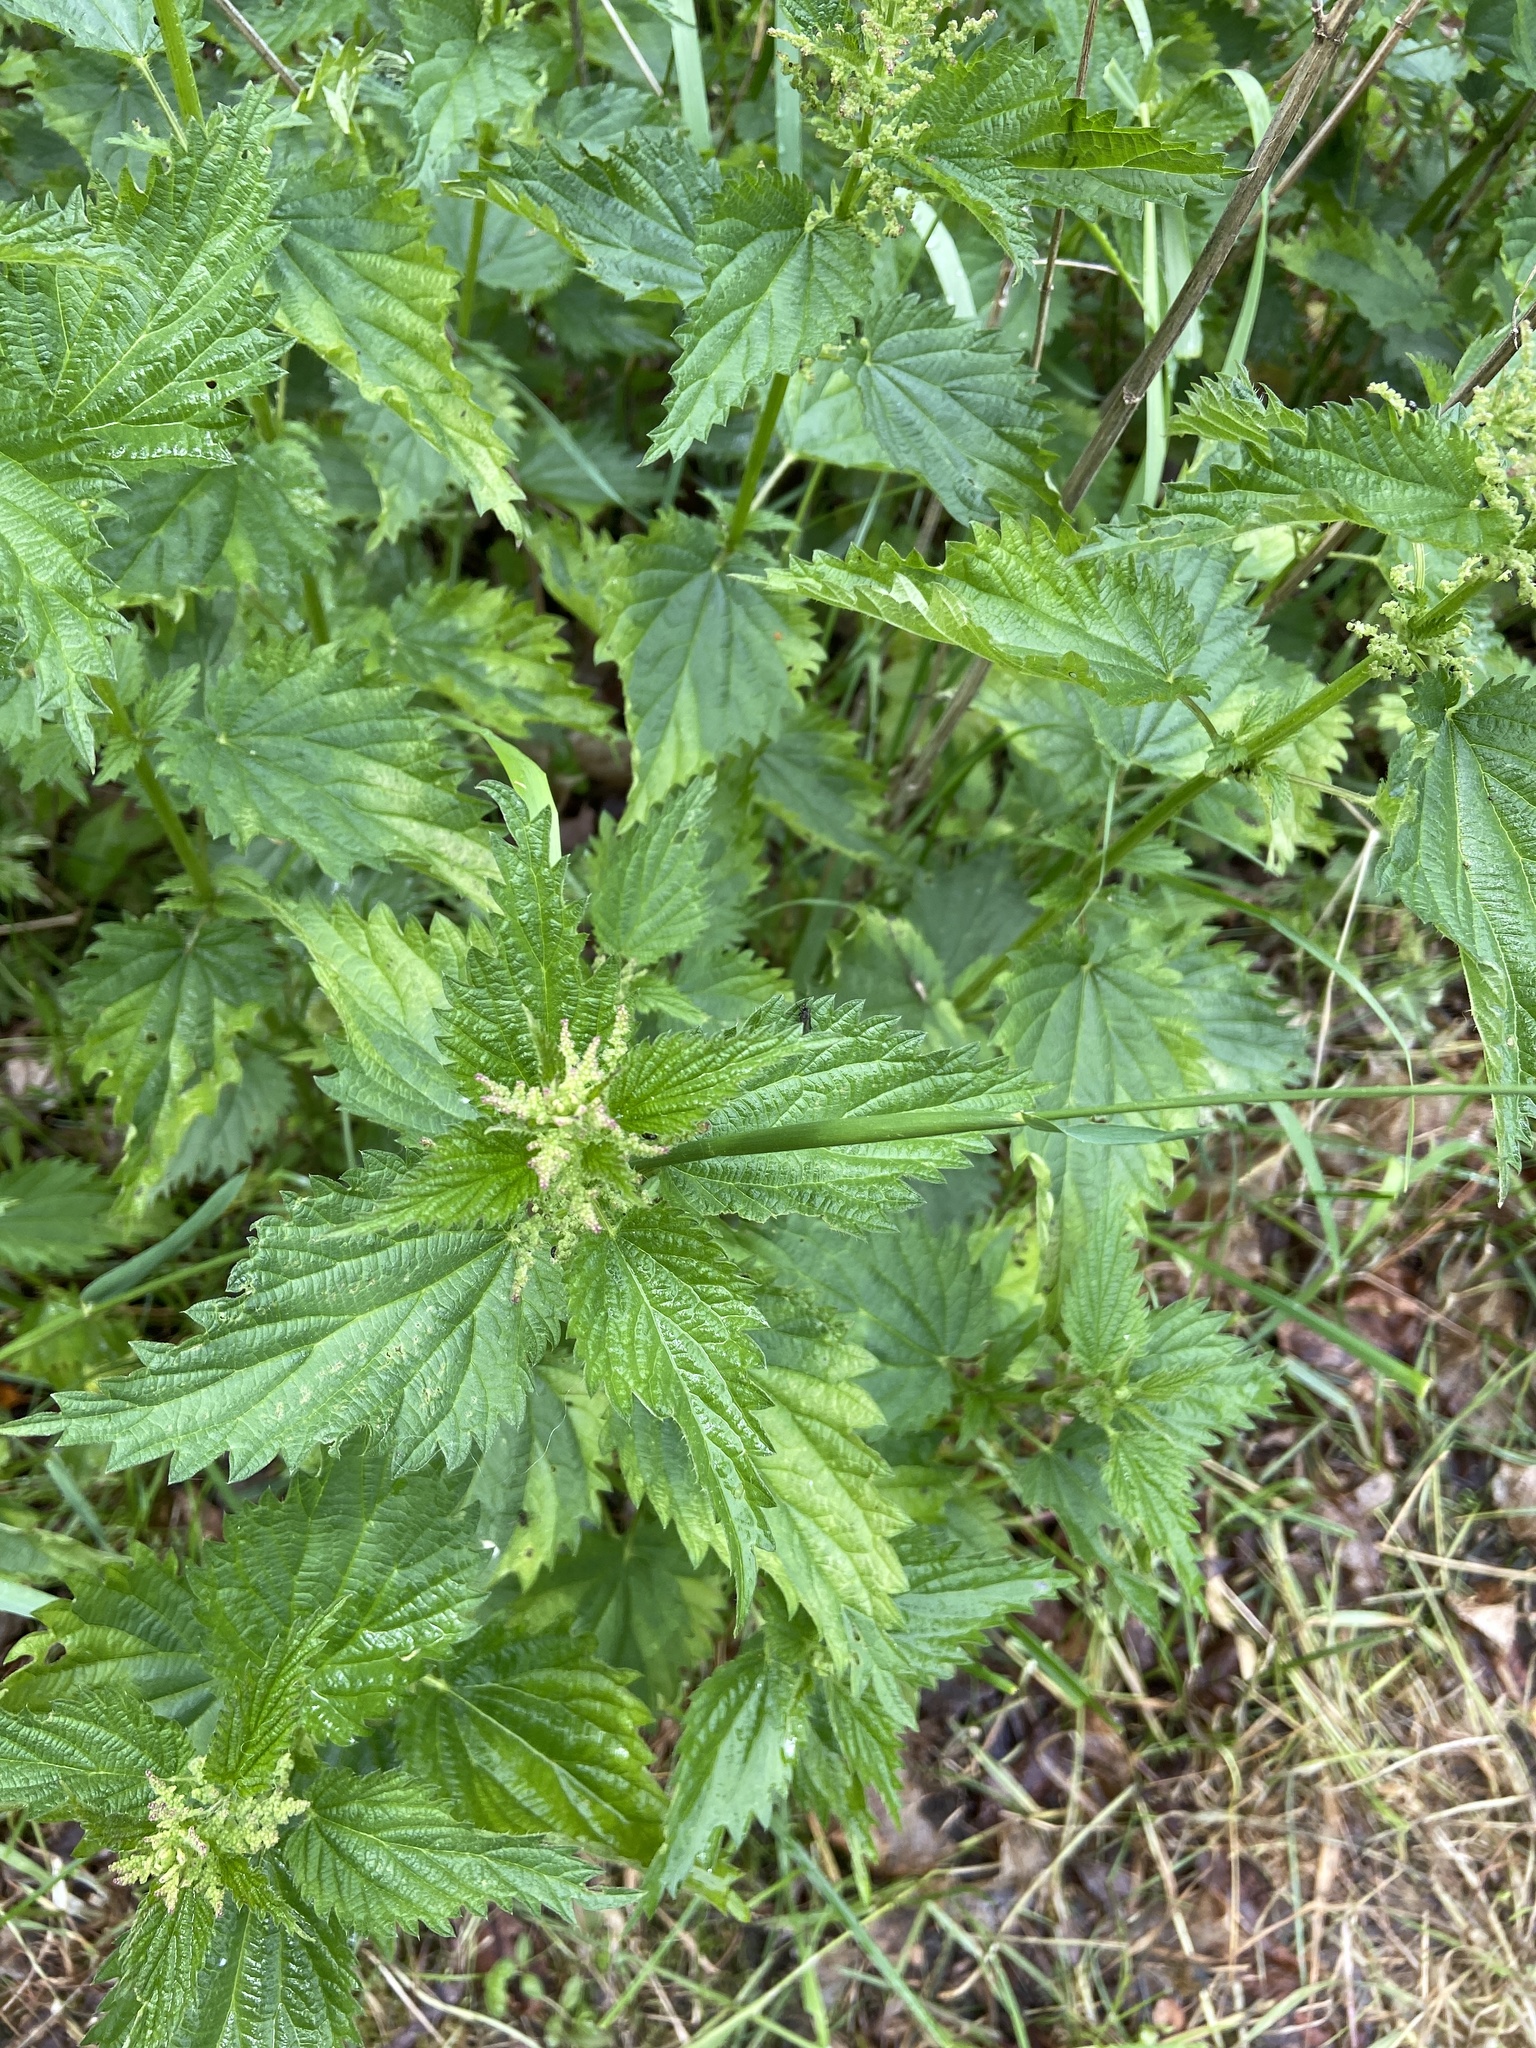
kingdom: Plantae
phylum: Tracheophyta
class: Magnoliopsida
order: Rosales
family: Urticaceae
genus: Urtica
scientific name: Urtica dioica
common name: Common nettle
